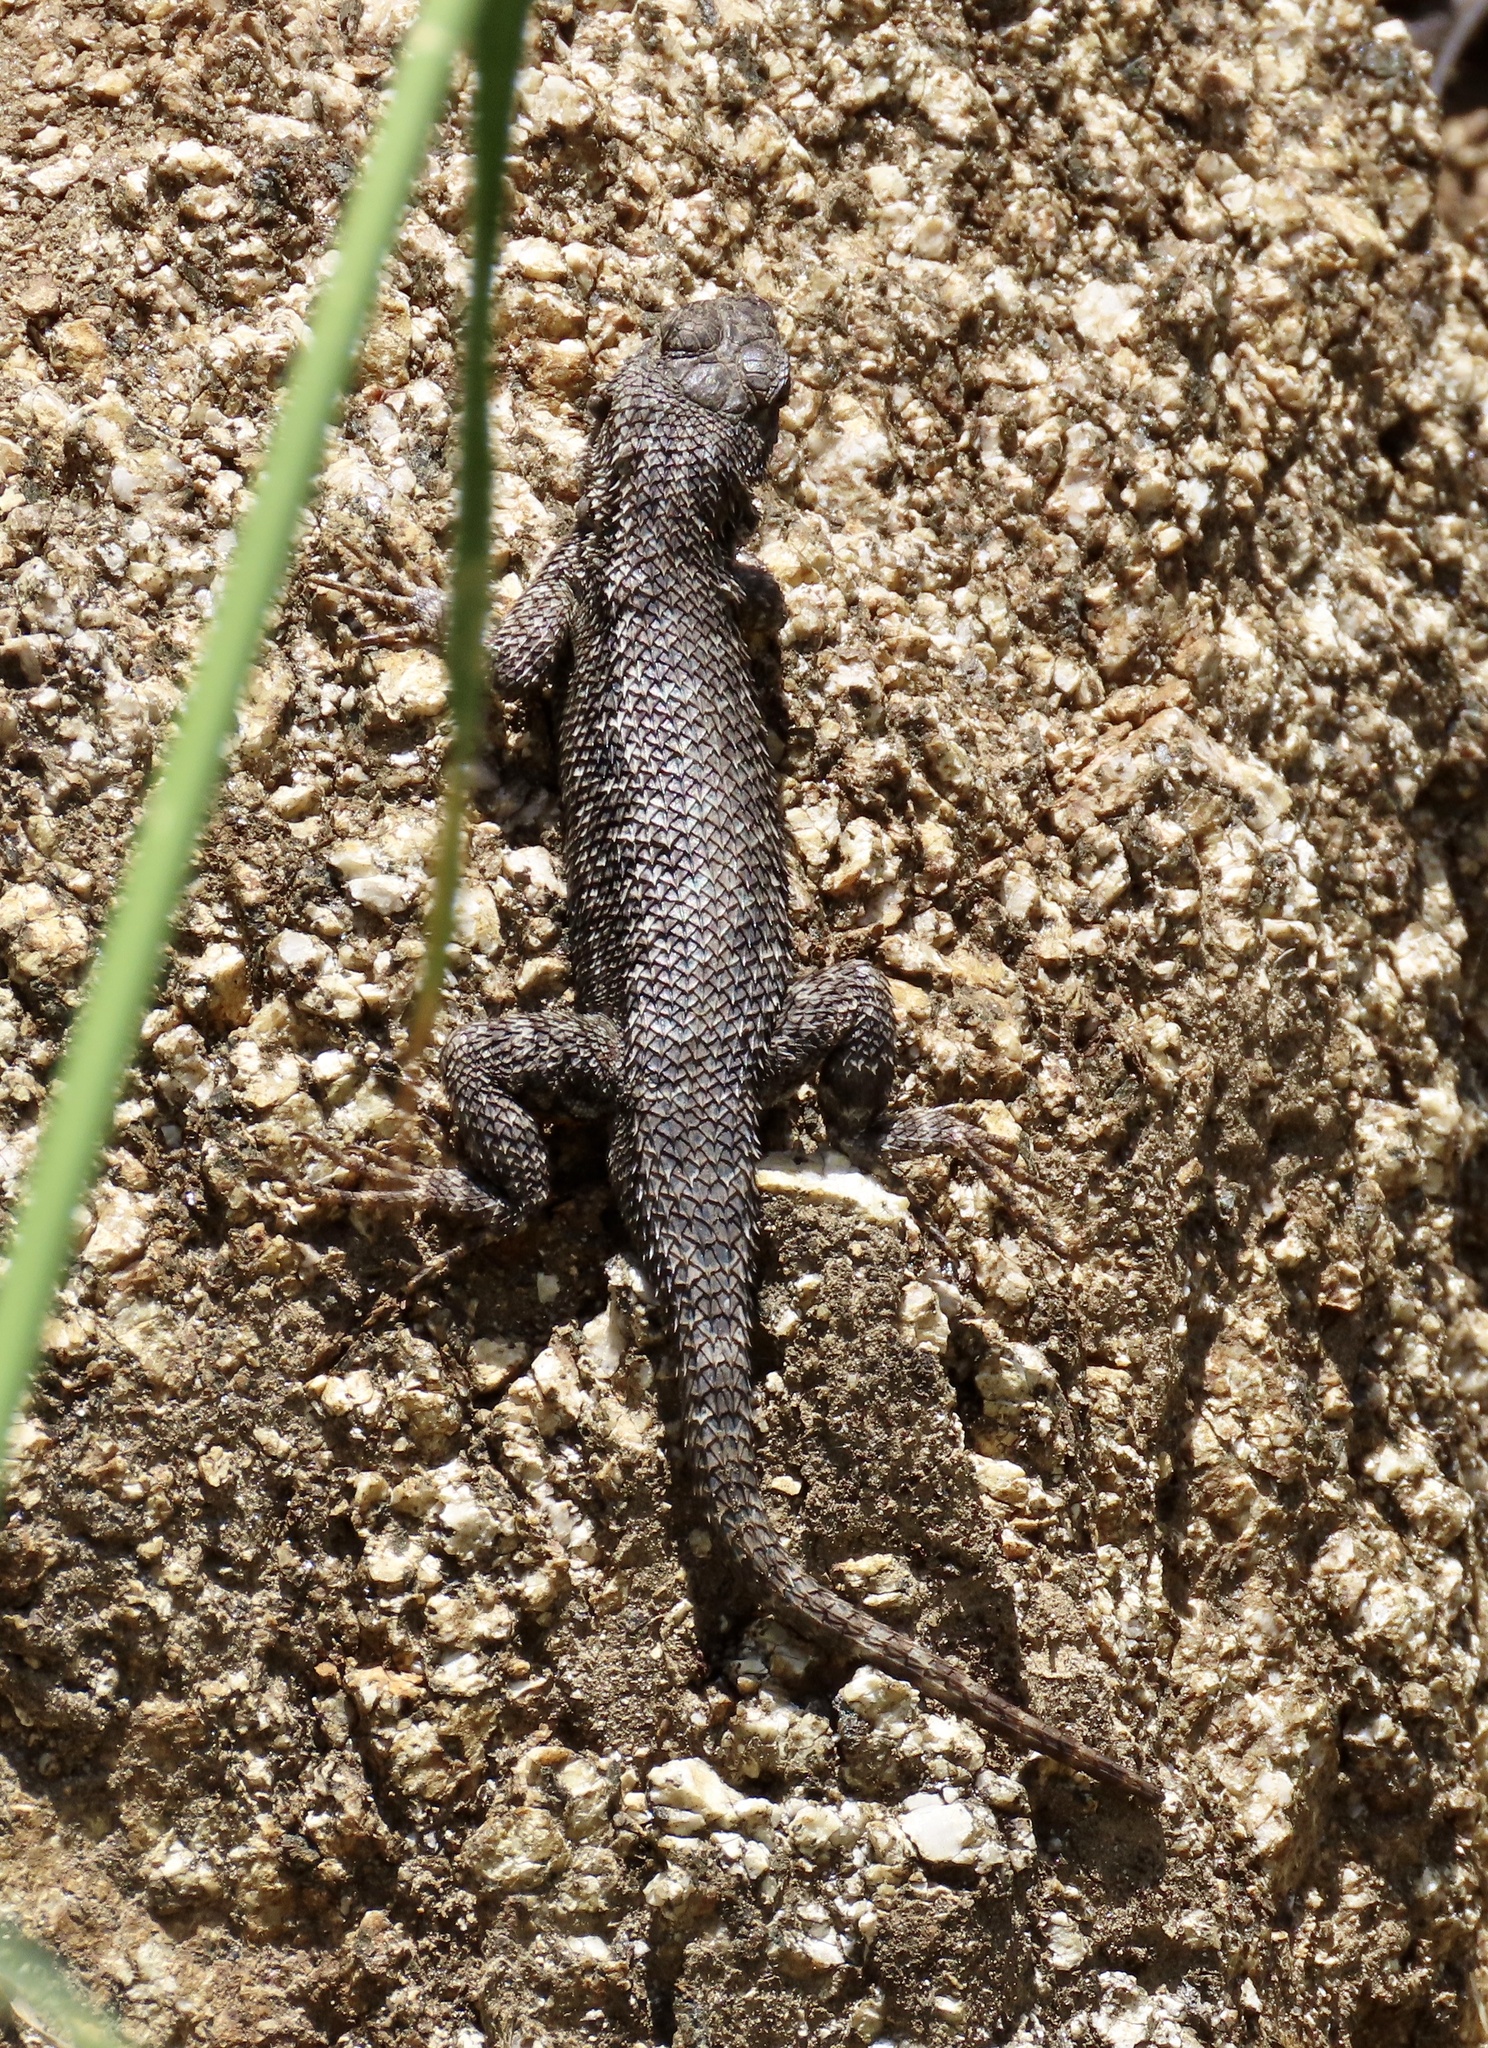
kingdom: Animalia
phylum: Chordata
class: Squamata
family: Phrynosomatidae
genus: Sceloporus
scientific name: Sceloporus occidentalis
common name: Western fence lizard
